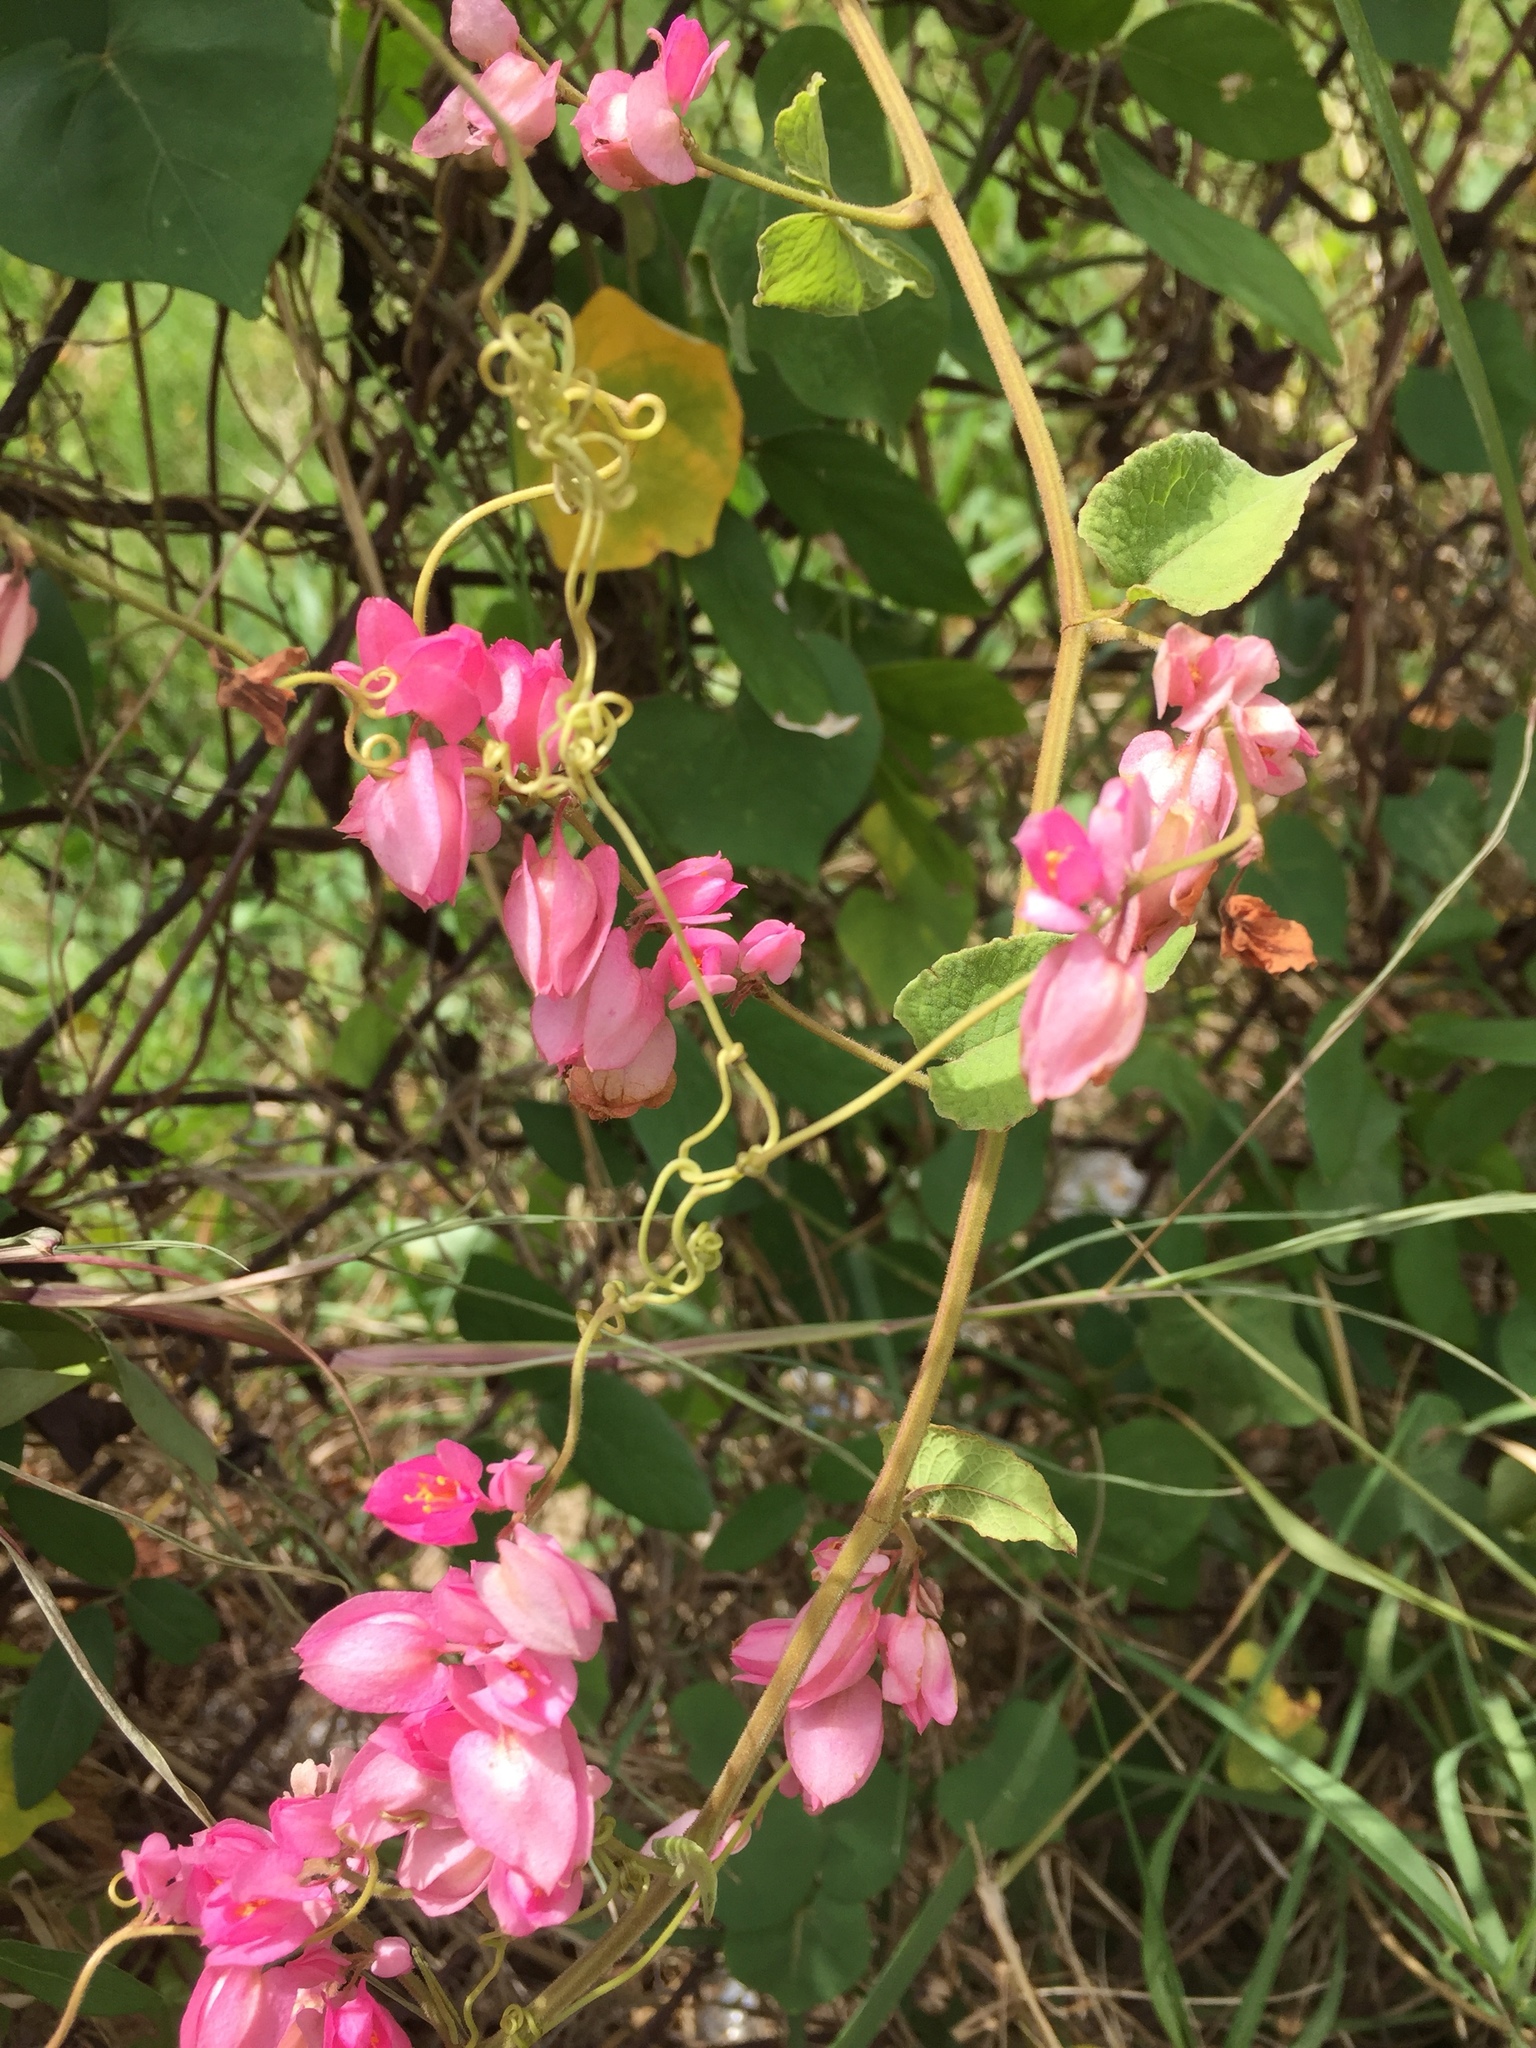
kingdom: Plantae
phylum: Tracheophyta
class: Magnoliopsida
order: Caryophyllales
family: Polygonaceae
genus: Antigonon
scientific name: Antigonon leptopus
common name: Coral vine
